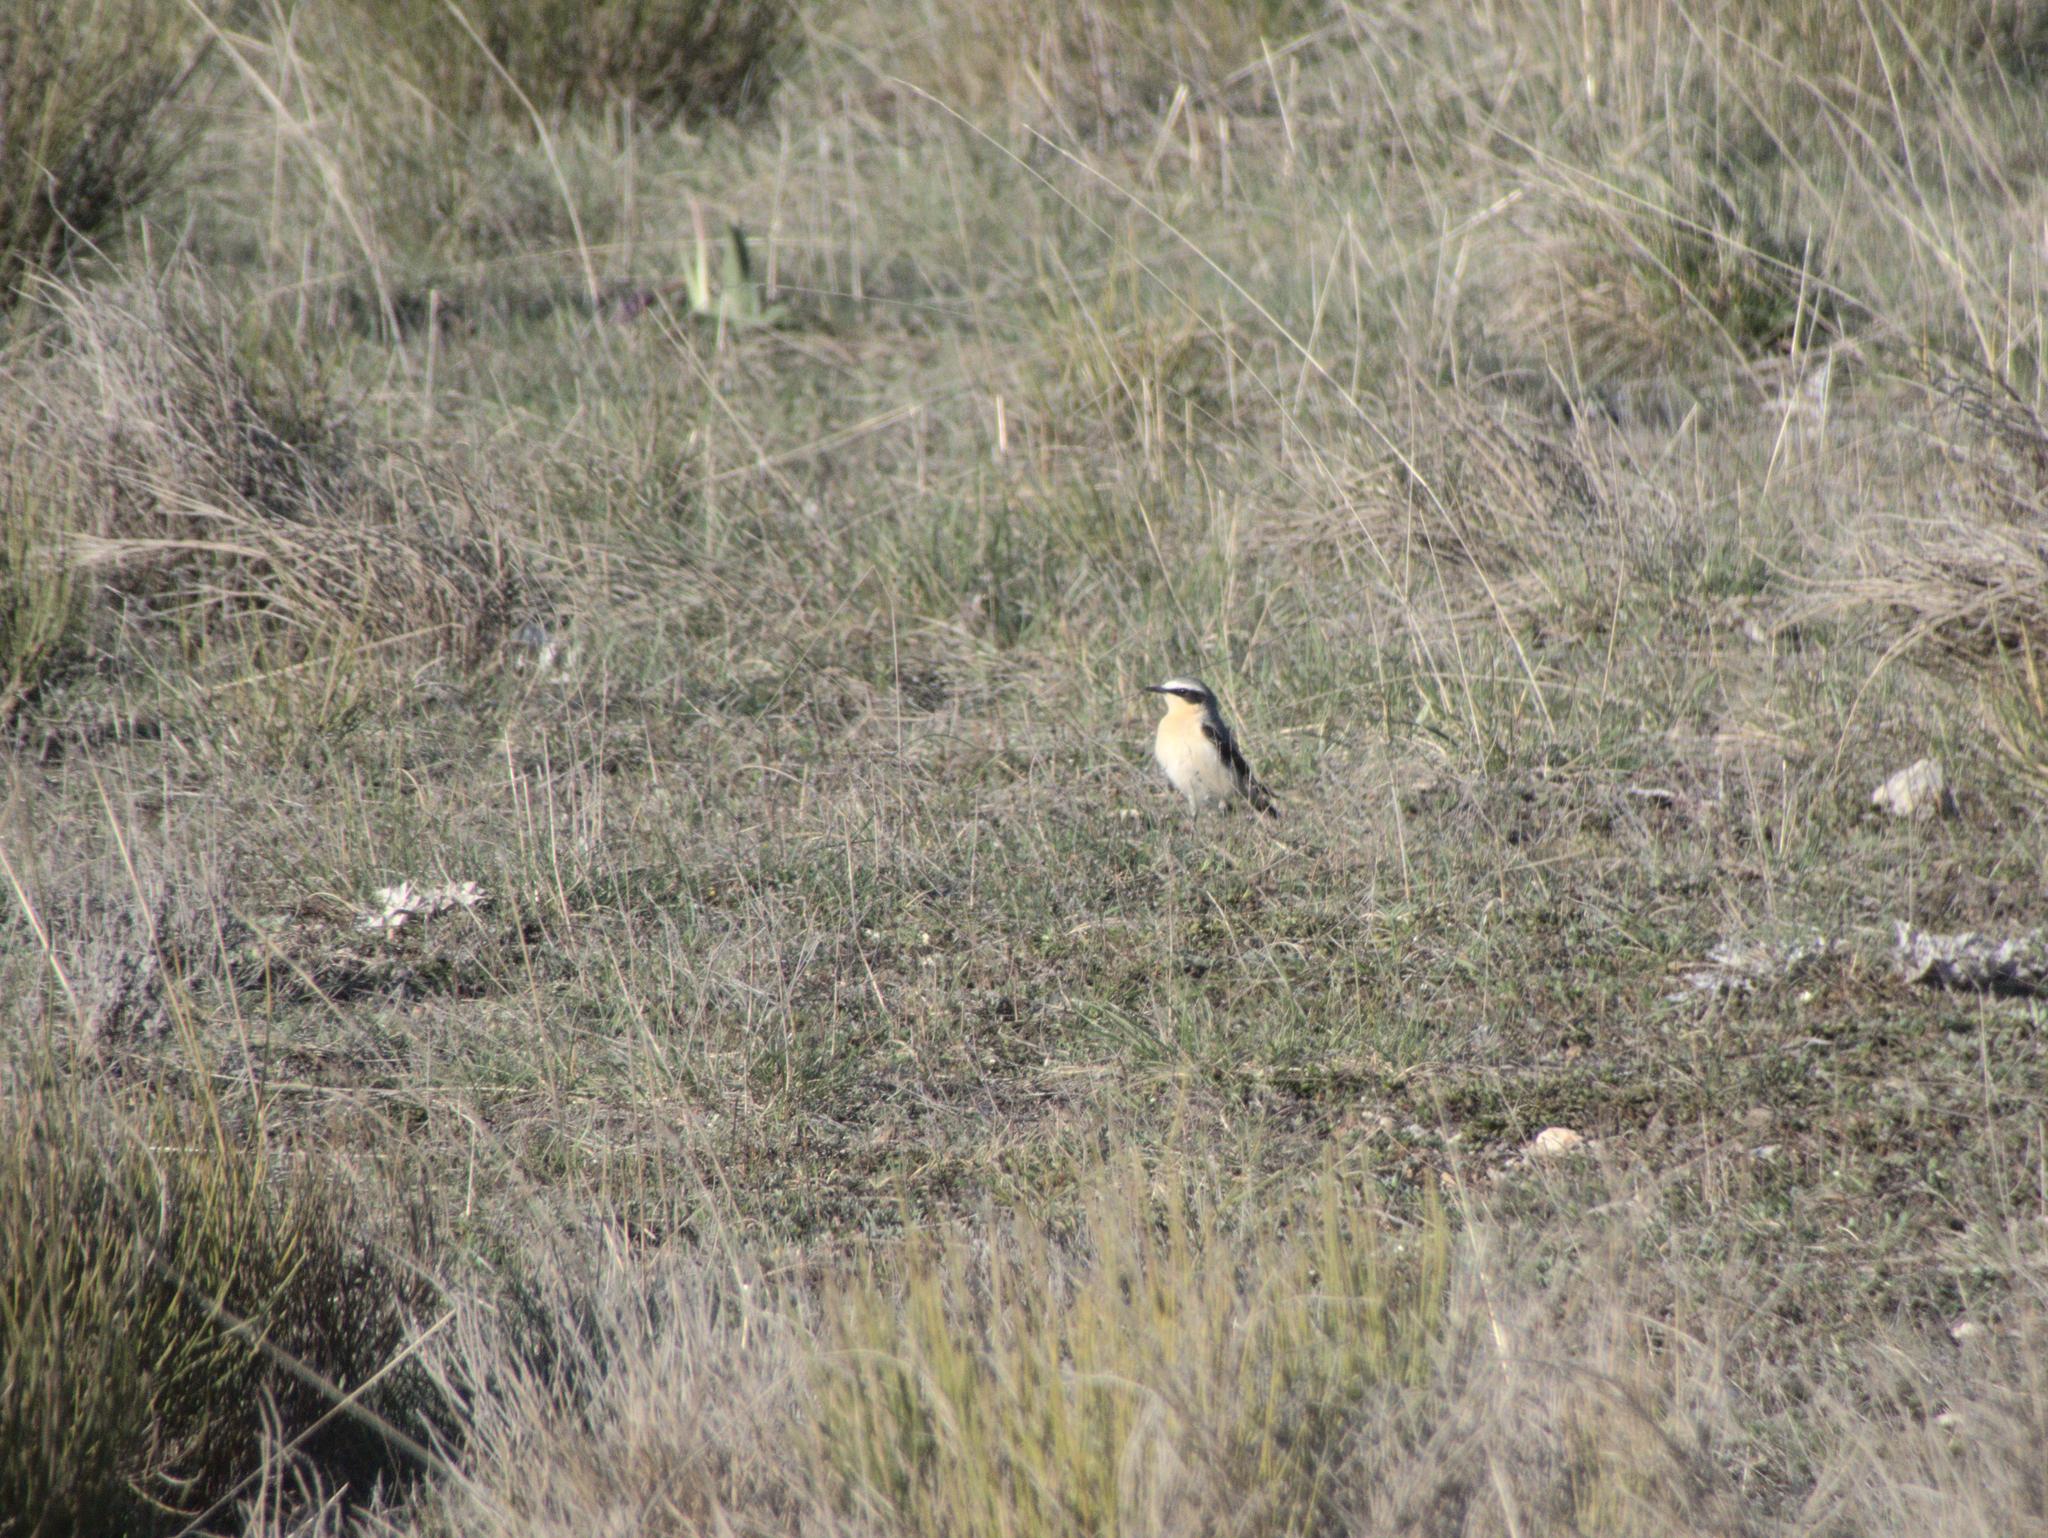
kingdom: Animalia
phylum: Chordata
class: Aves
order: Passeriformes
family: Muscicapidae
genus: Oenanthe
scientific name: Oenanthe oenanthe
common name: Northern wheatear
